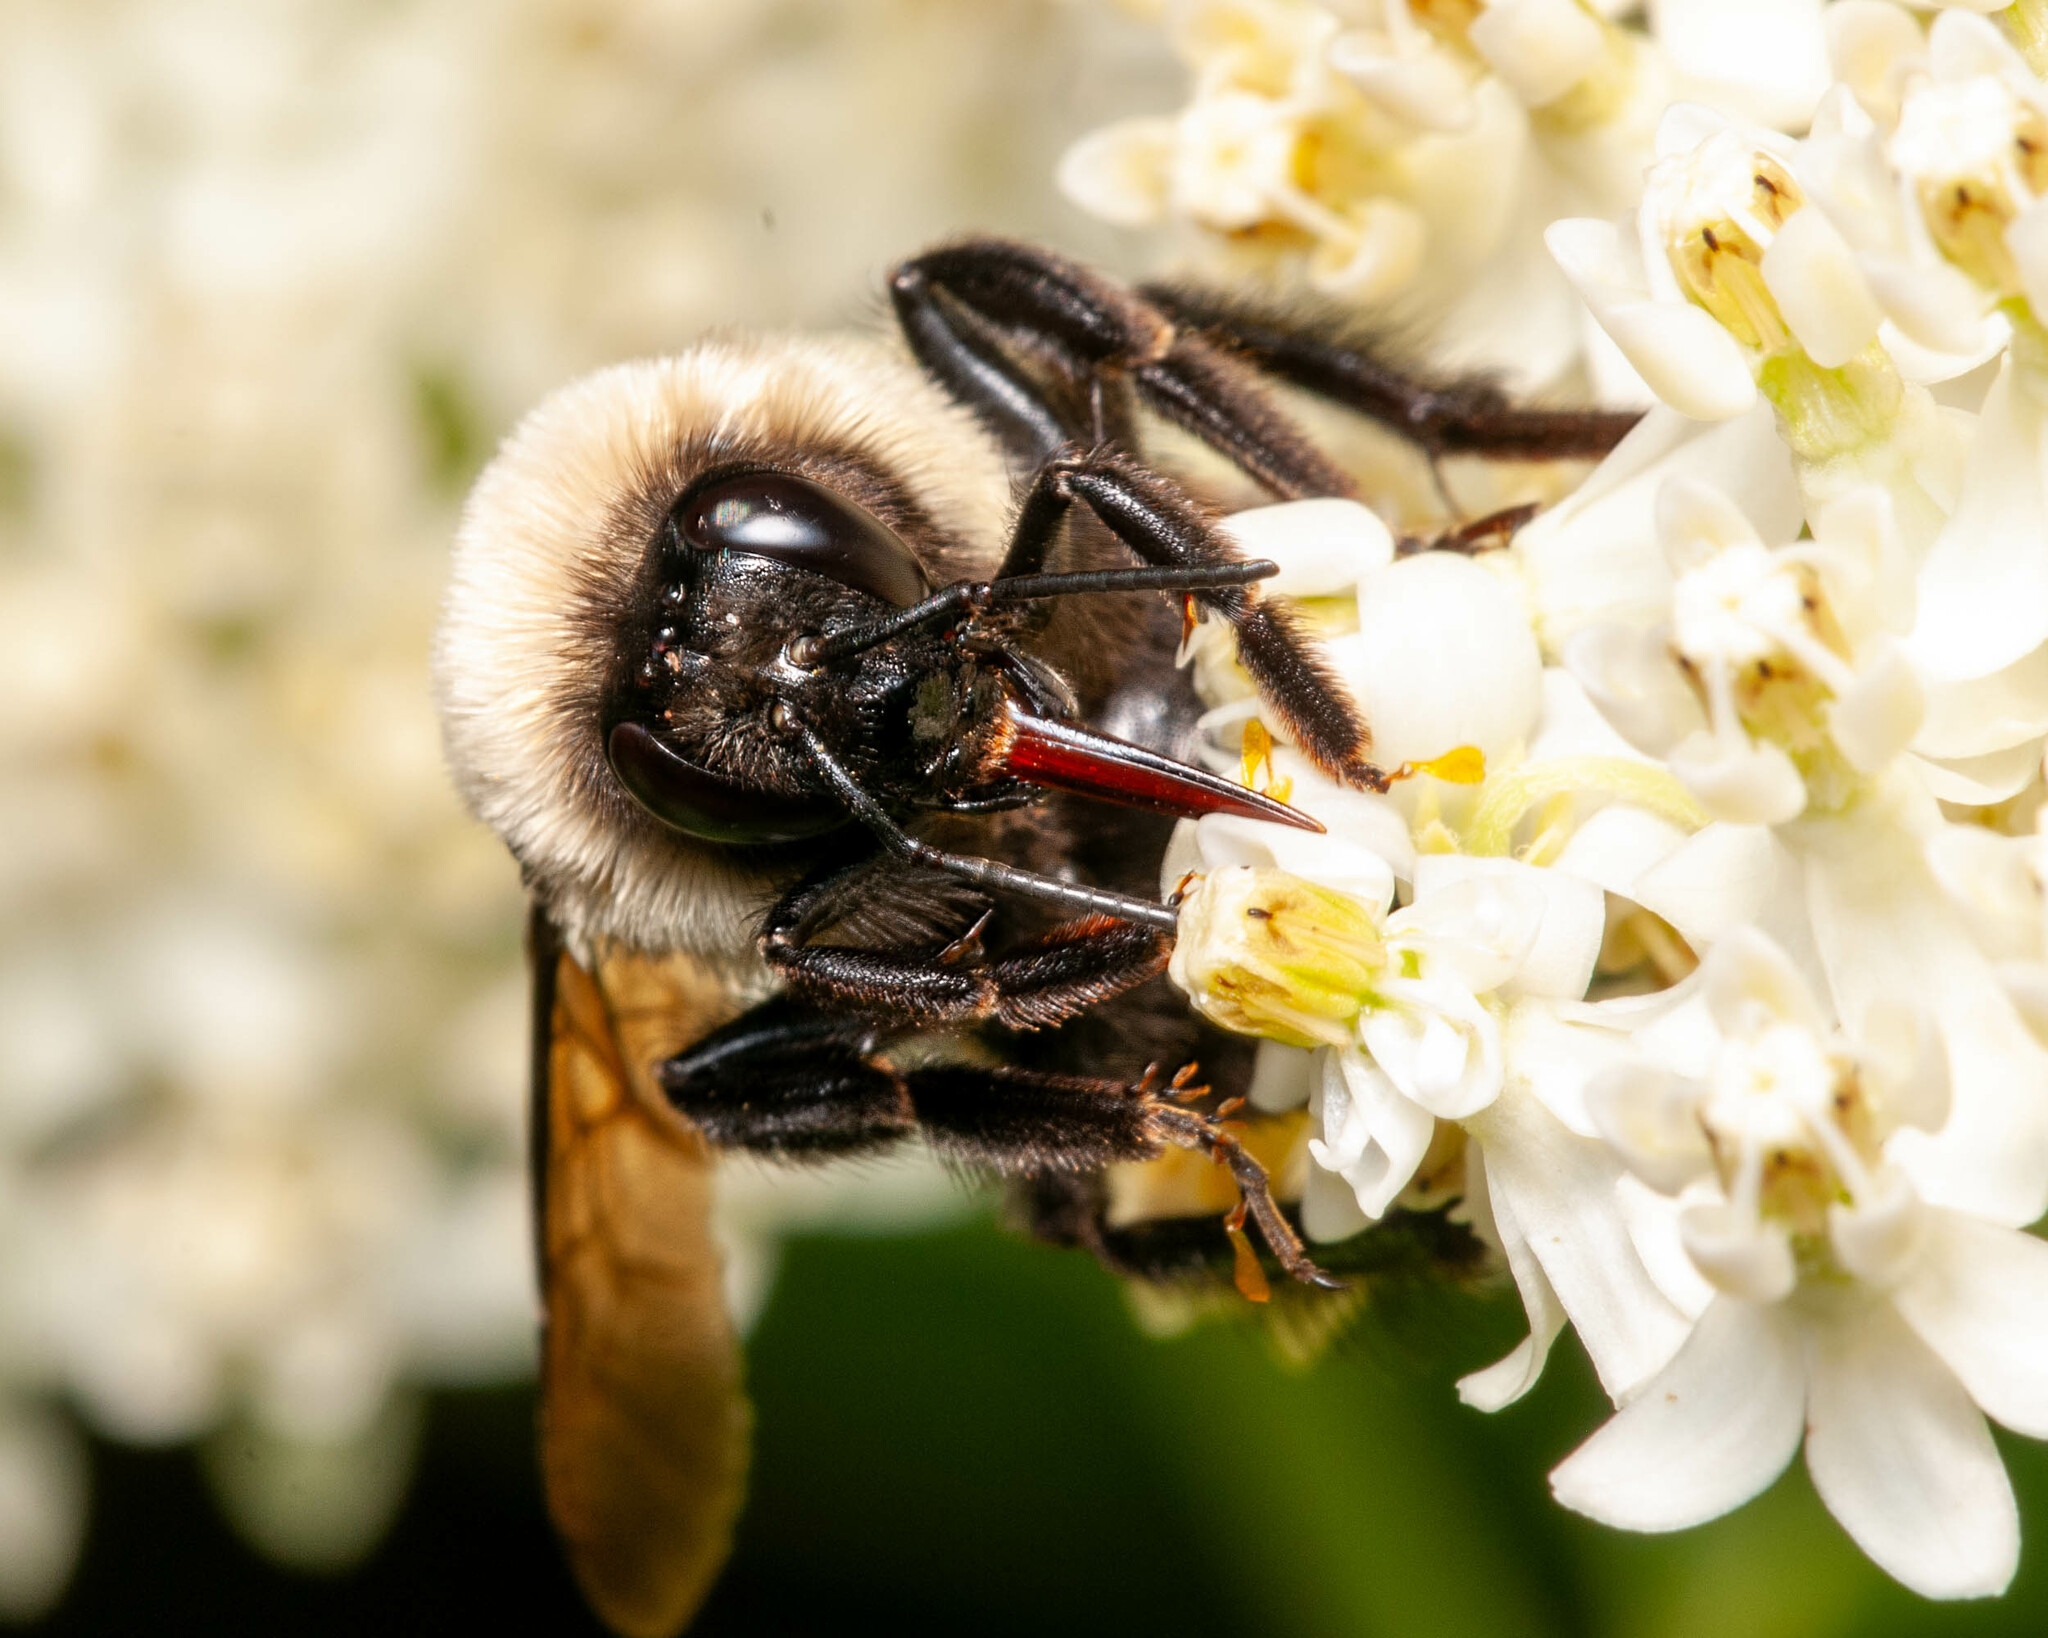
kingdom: Animalia
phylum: Arthropoda
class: Insecta
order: Hymenoptera
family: Apidae
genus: Bombus
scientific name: Bombus griseocollis
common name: Brown-belted bumble bee
